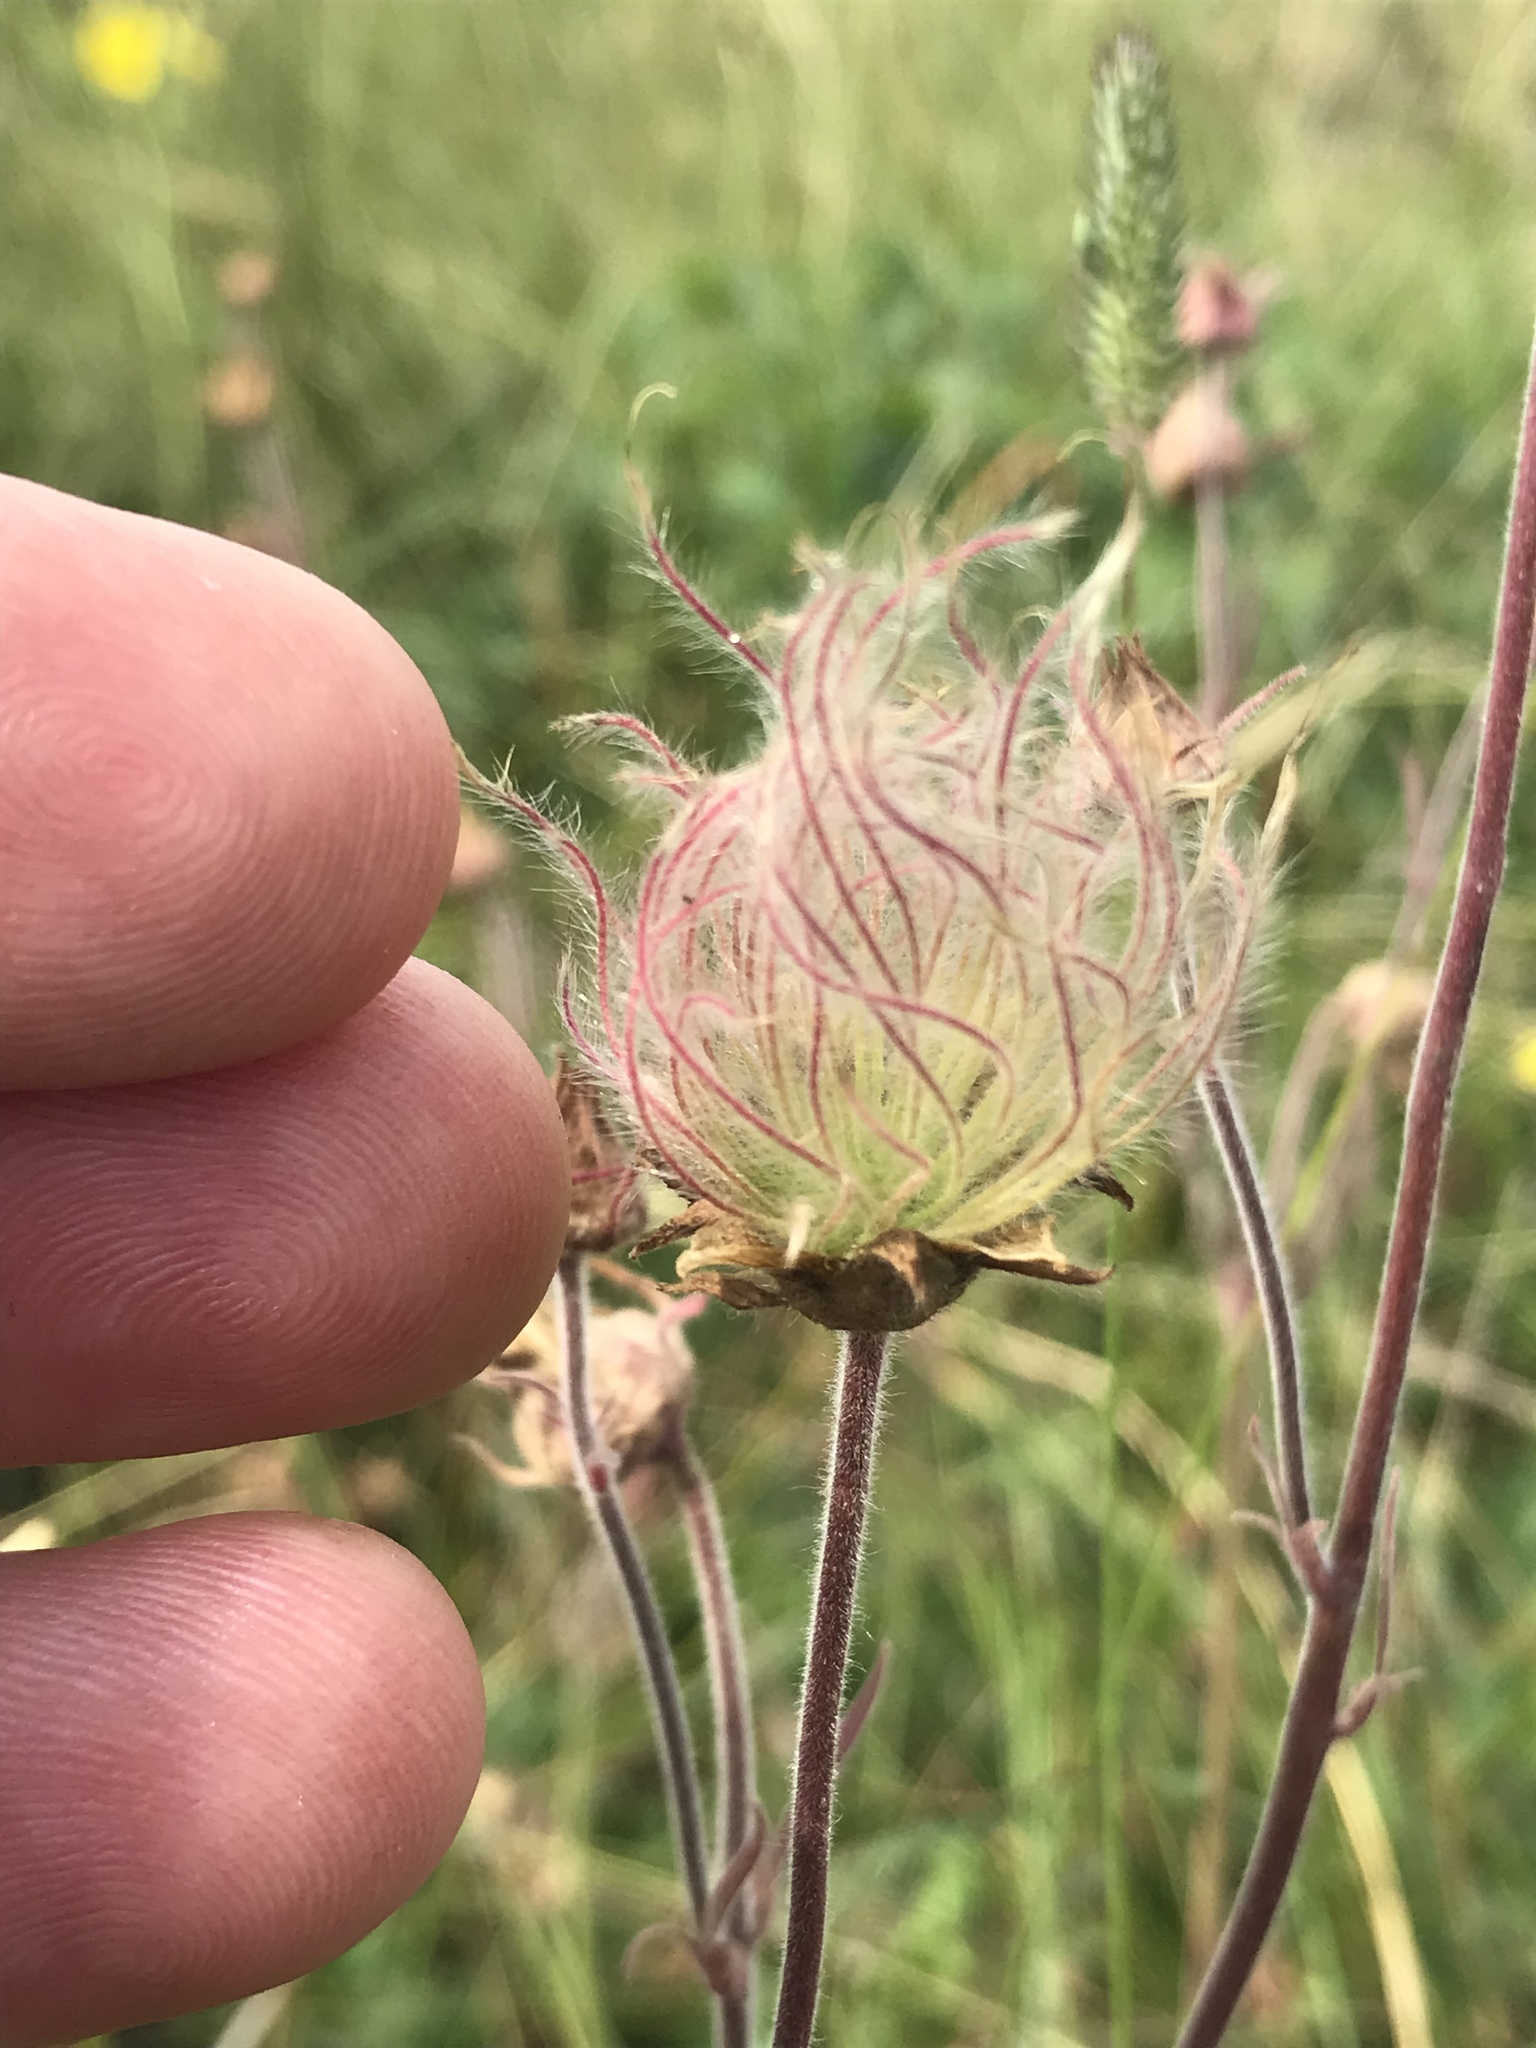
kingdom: Plantae
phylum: Tracheophyta
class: Magnoliopsida
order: Rosales
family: Rosaceae
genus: Geum
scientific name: Geum triflorum
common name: Old man's whiskers
